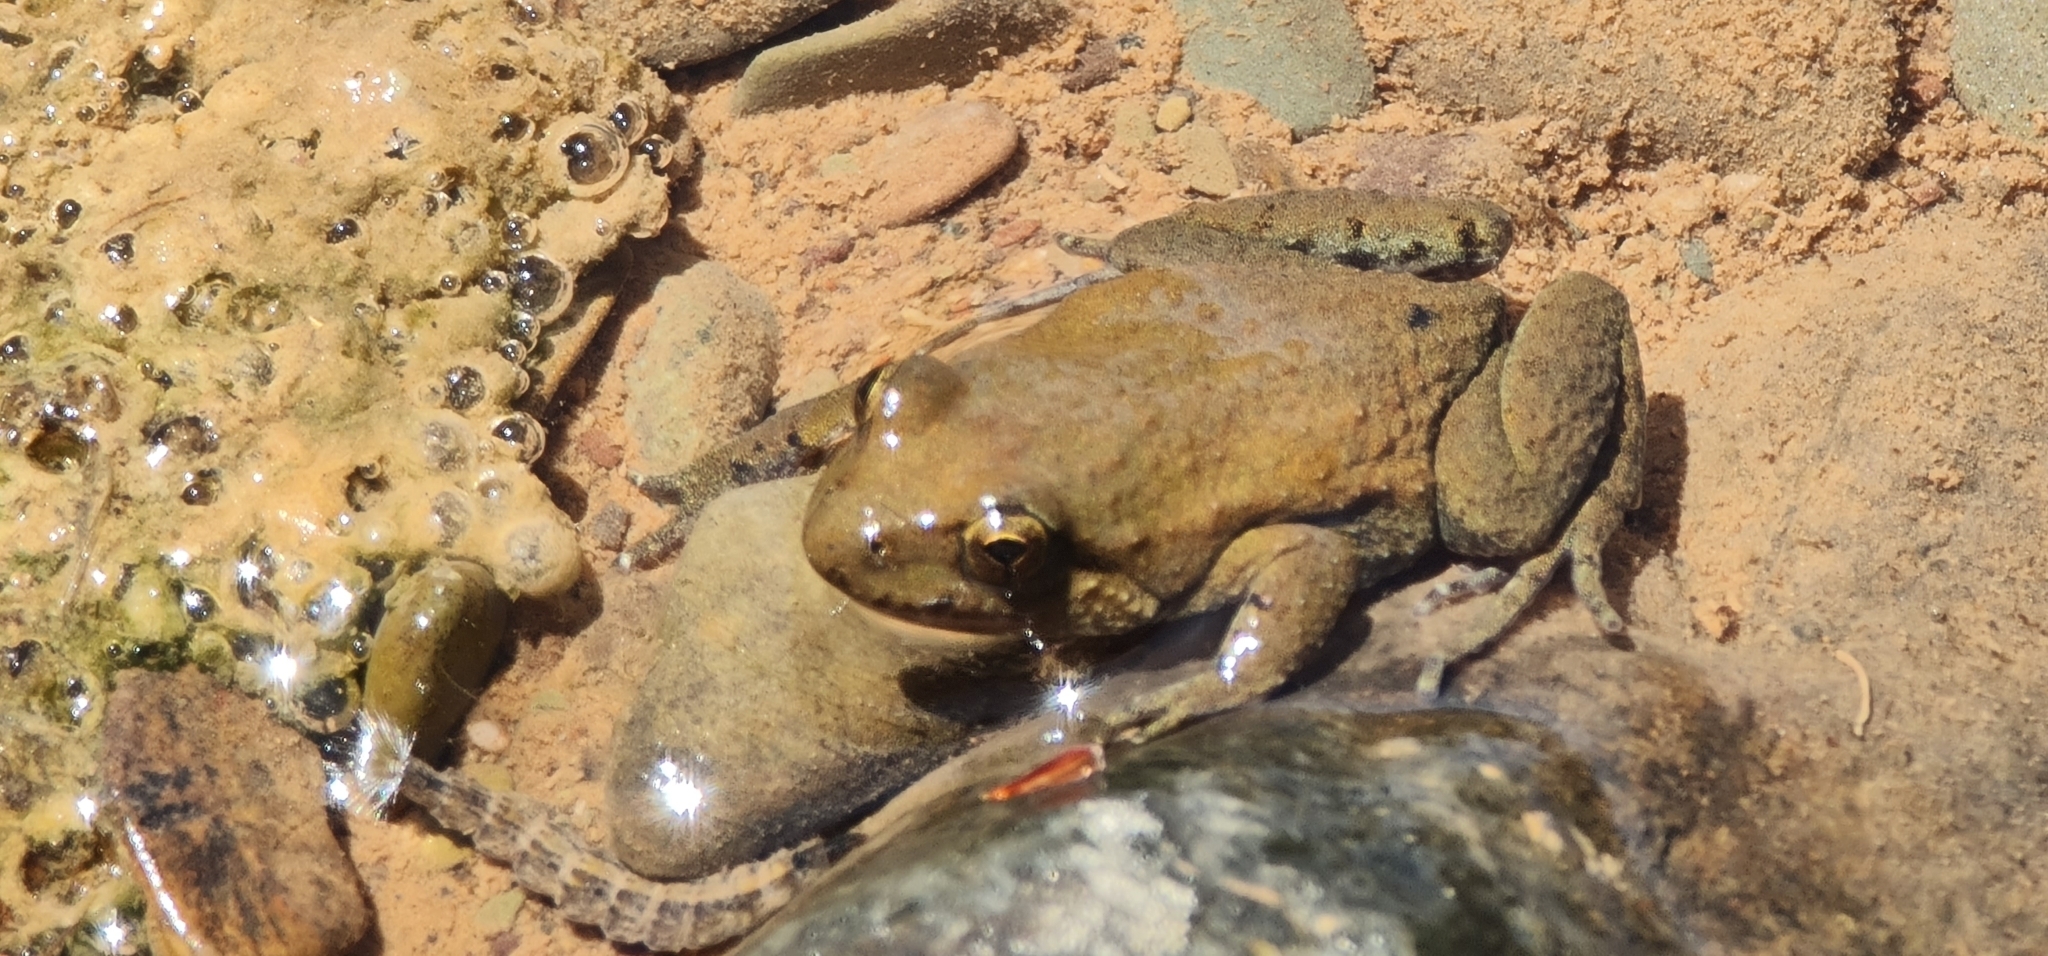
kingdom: Animalia
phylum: Chordata
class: Amphibia
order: Anura
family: Myobatrachidae
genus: Crinia
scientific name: Crinia flindersensis
